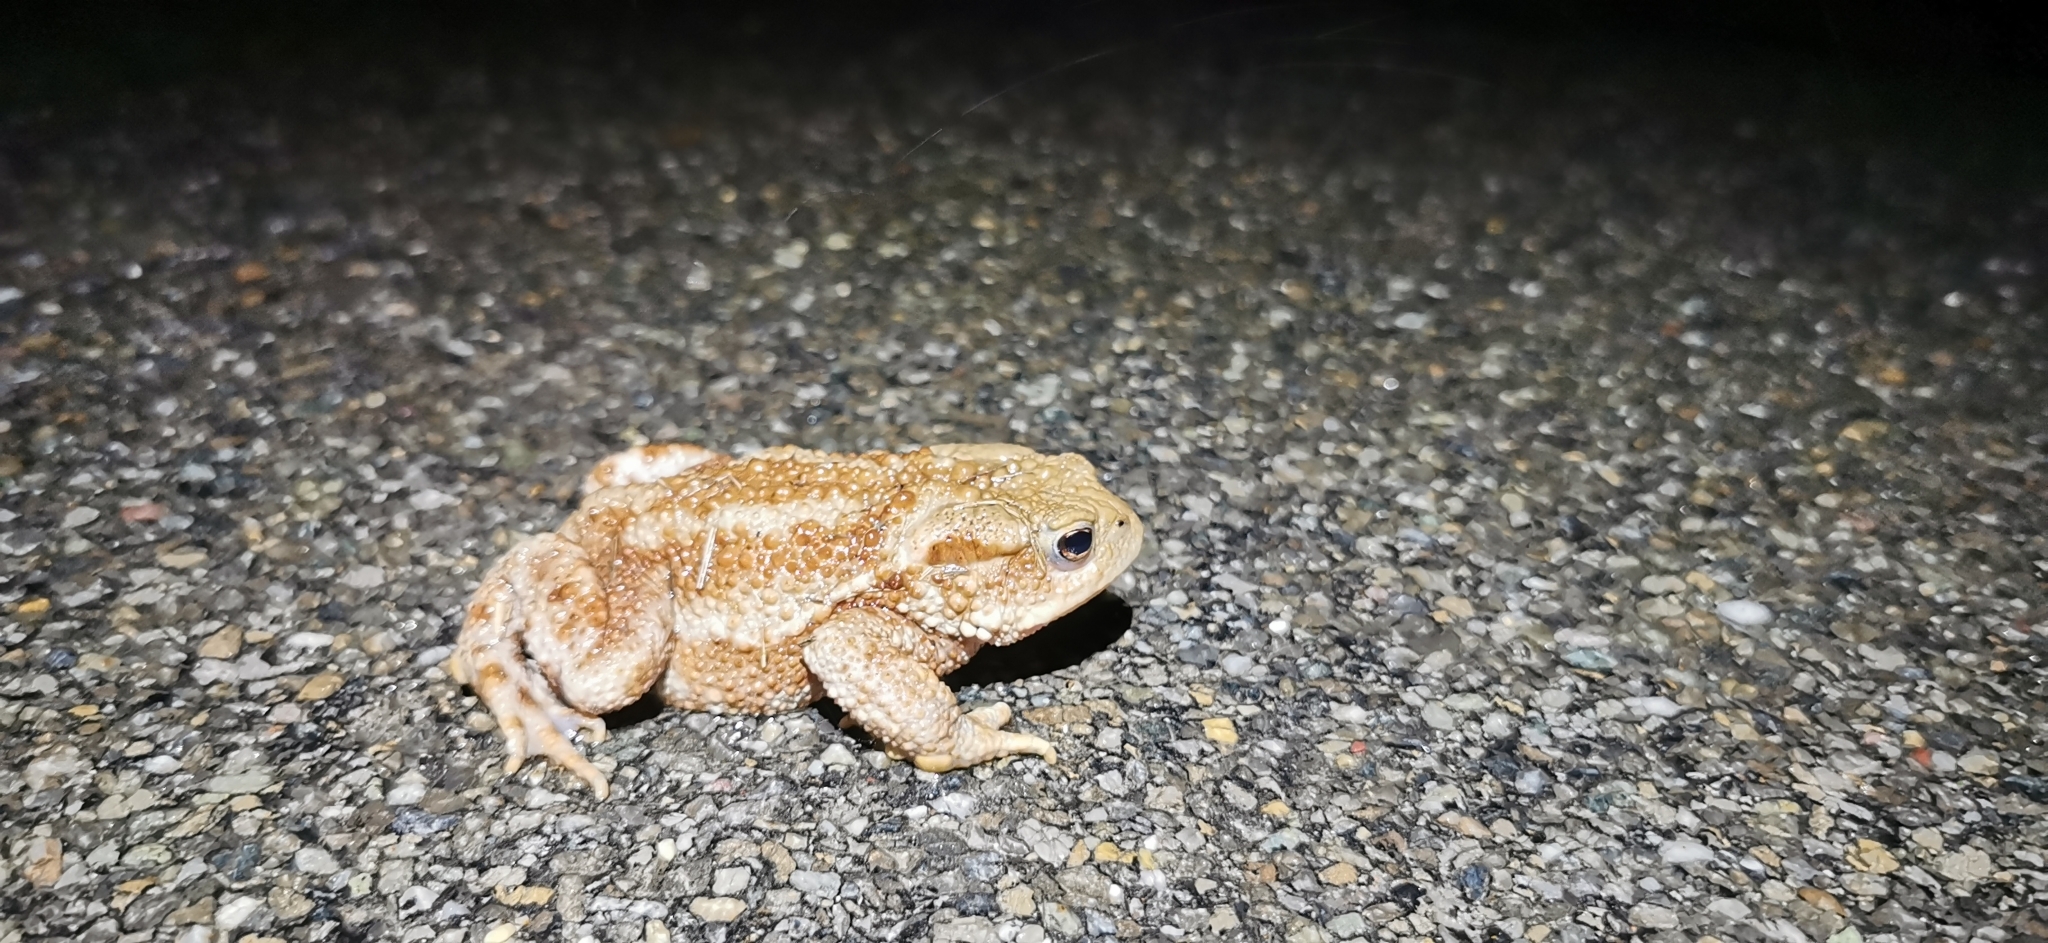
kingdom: Animalia
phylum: Chordata
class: Amphibia
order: Anura
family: Bufonidae
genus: Bufo
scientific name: Bufo bufo
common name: Common toad
